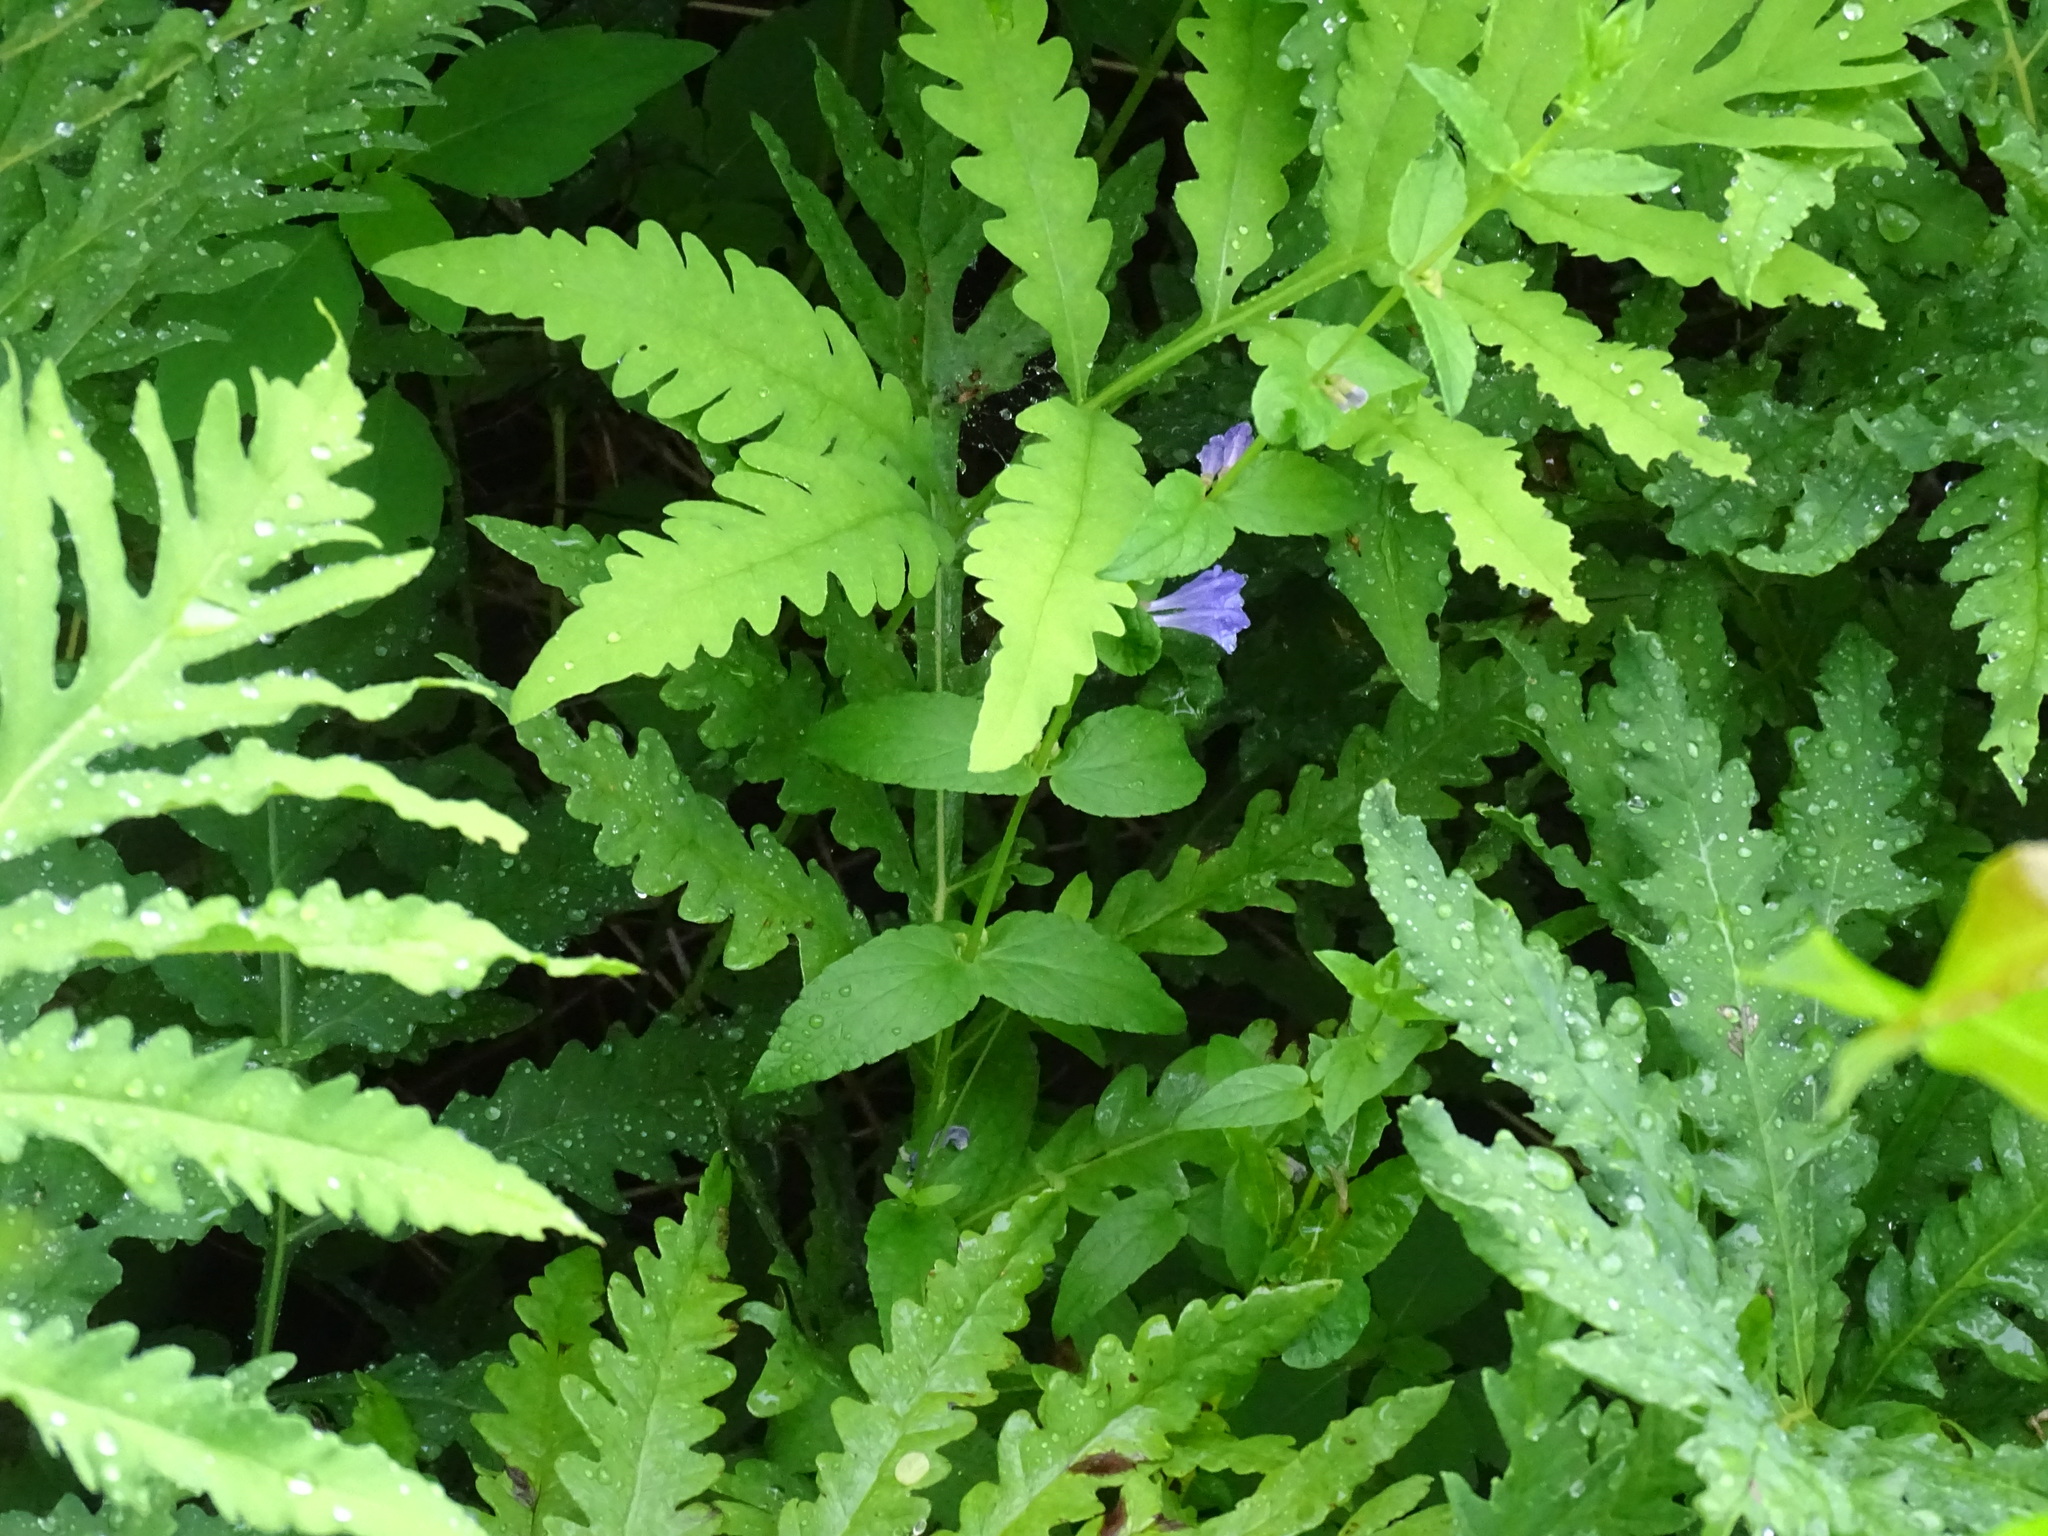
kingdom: Plantae
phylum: Tracheophyta
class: Magnoliopsida
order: Lamiales
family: Lamiaceae
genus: Scutellaria
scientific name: Scutellaria galericulata
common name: Skullcap
